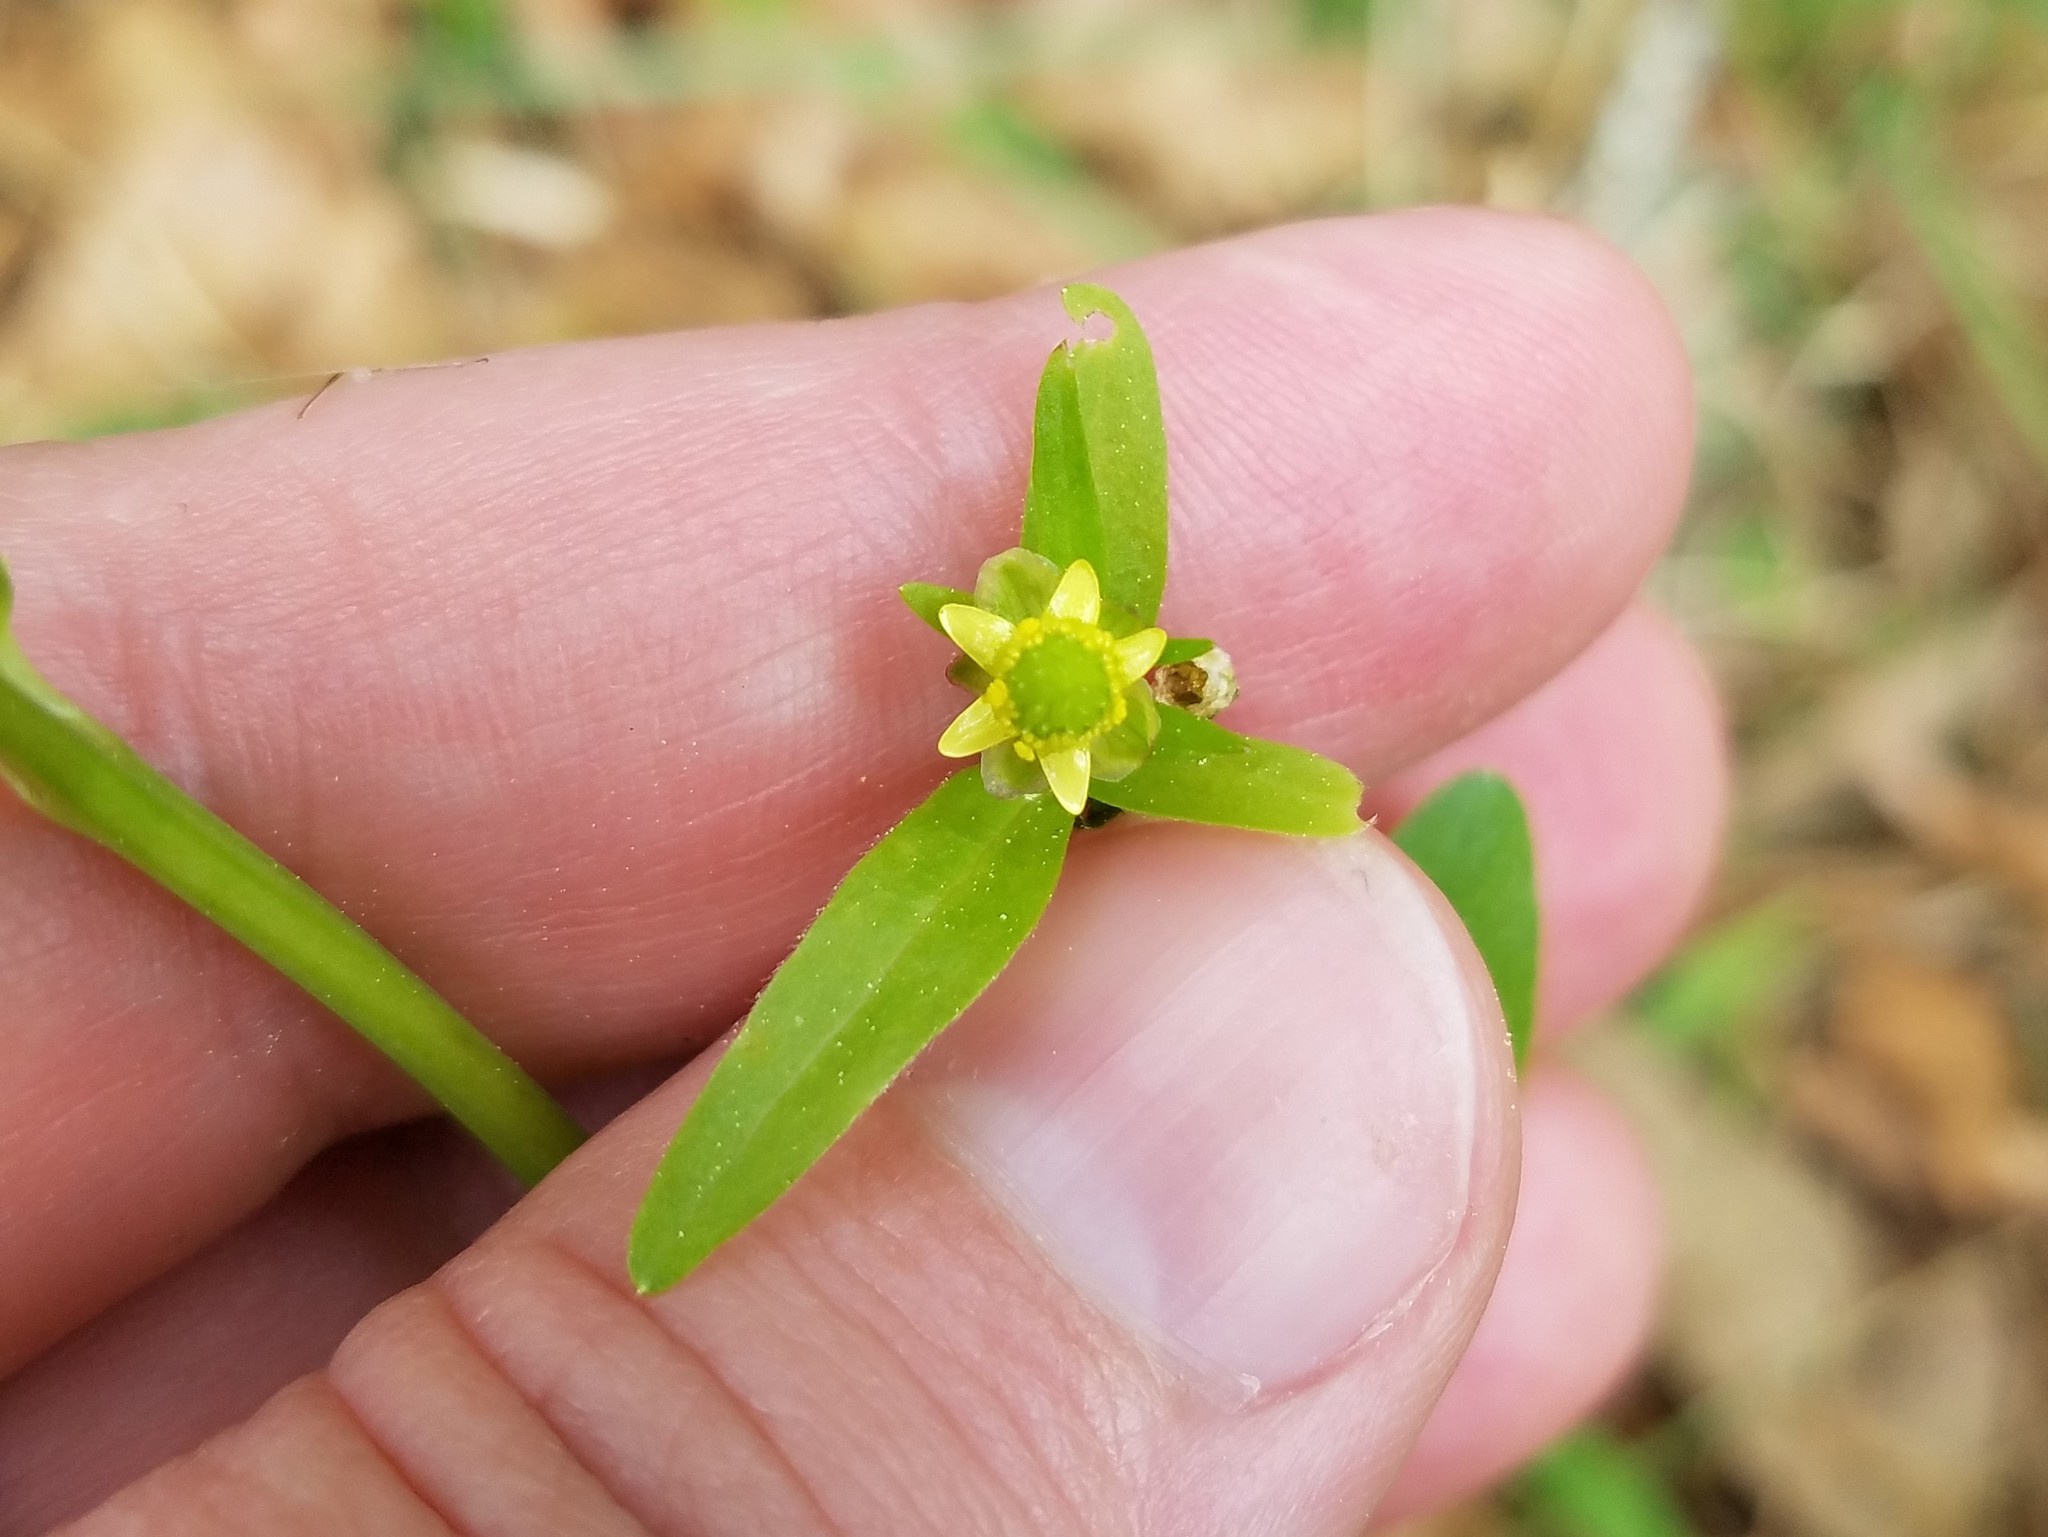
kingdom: Plantae
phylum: Tracheophyta
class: Magnoliopsida
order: Ranunculales
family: Ranunculaceae
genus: Ranunculus
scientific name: Ranunculus abortivus
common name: Early wood buttercup
